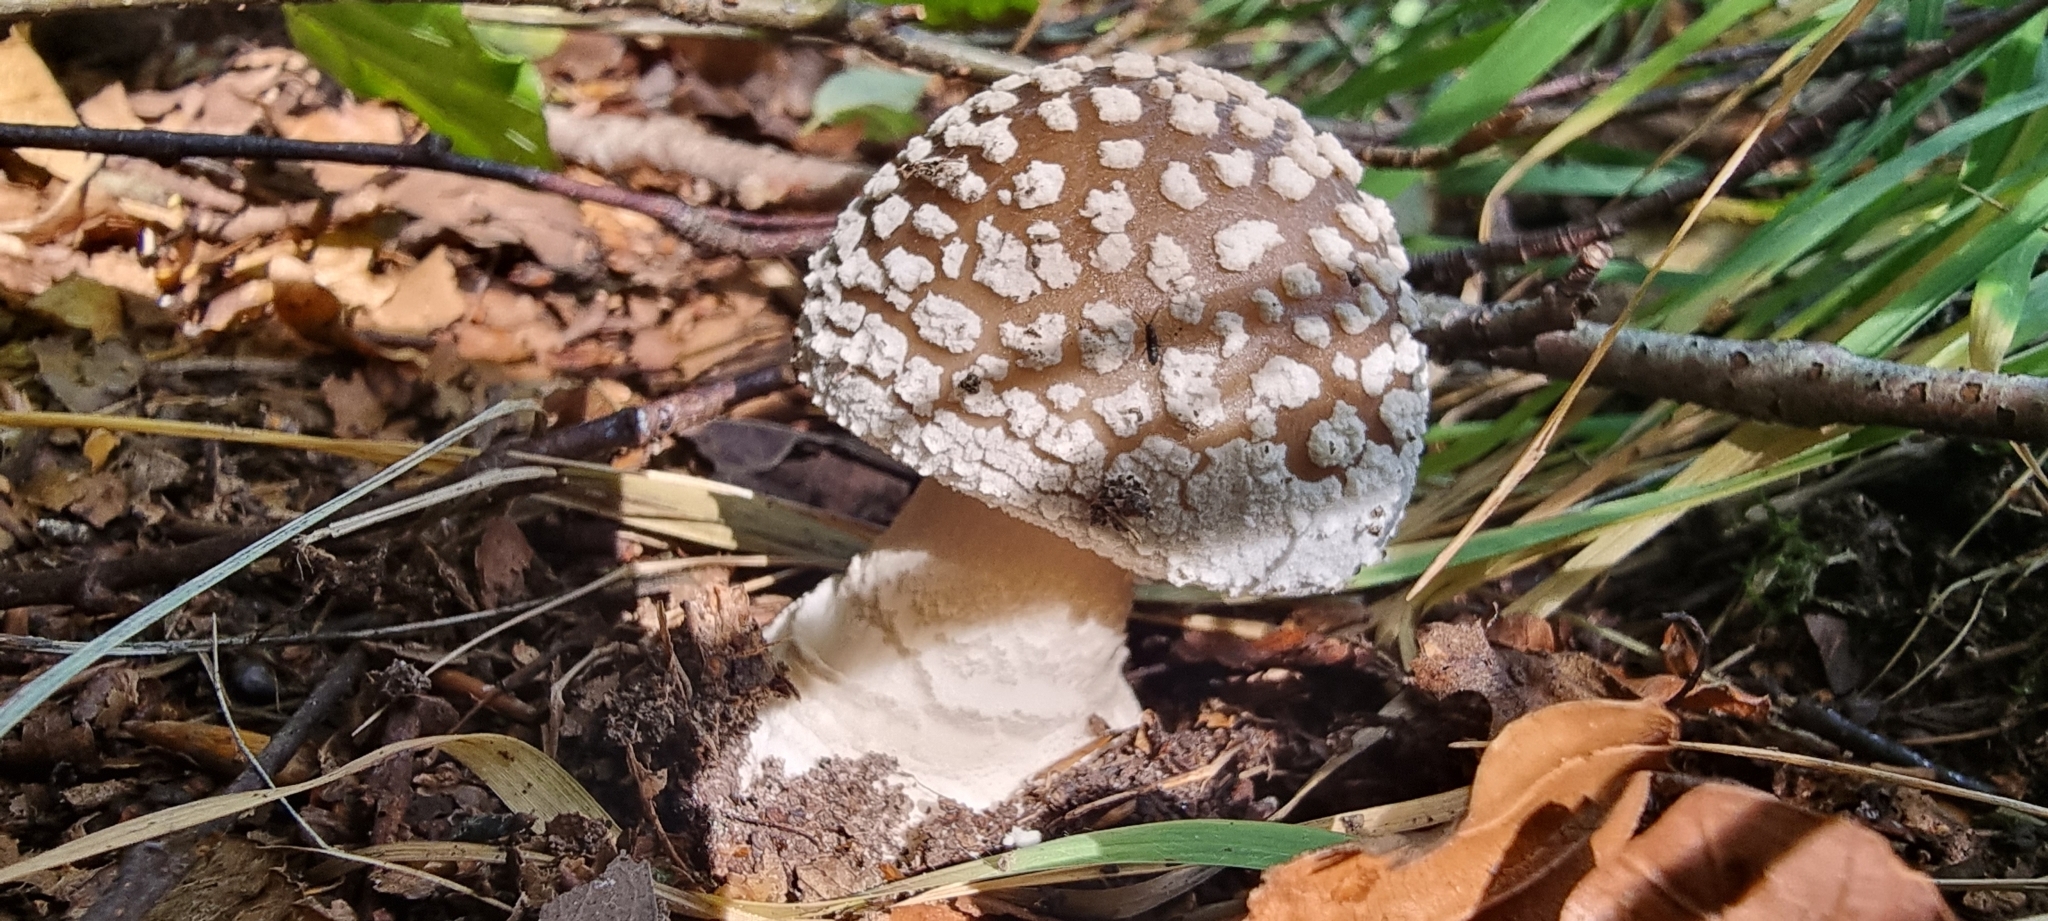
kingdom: Fungi
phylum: Basidiomycota
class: Agaricomycetes
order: Agaricales
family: Amanitaceae
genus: Amanita
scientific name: Amanita pantherina
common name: Panthercap
